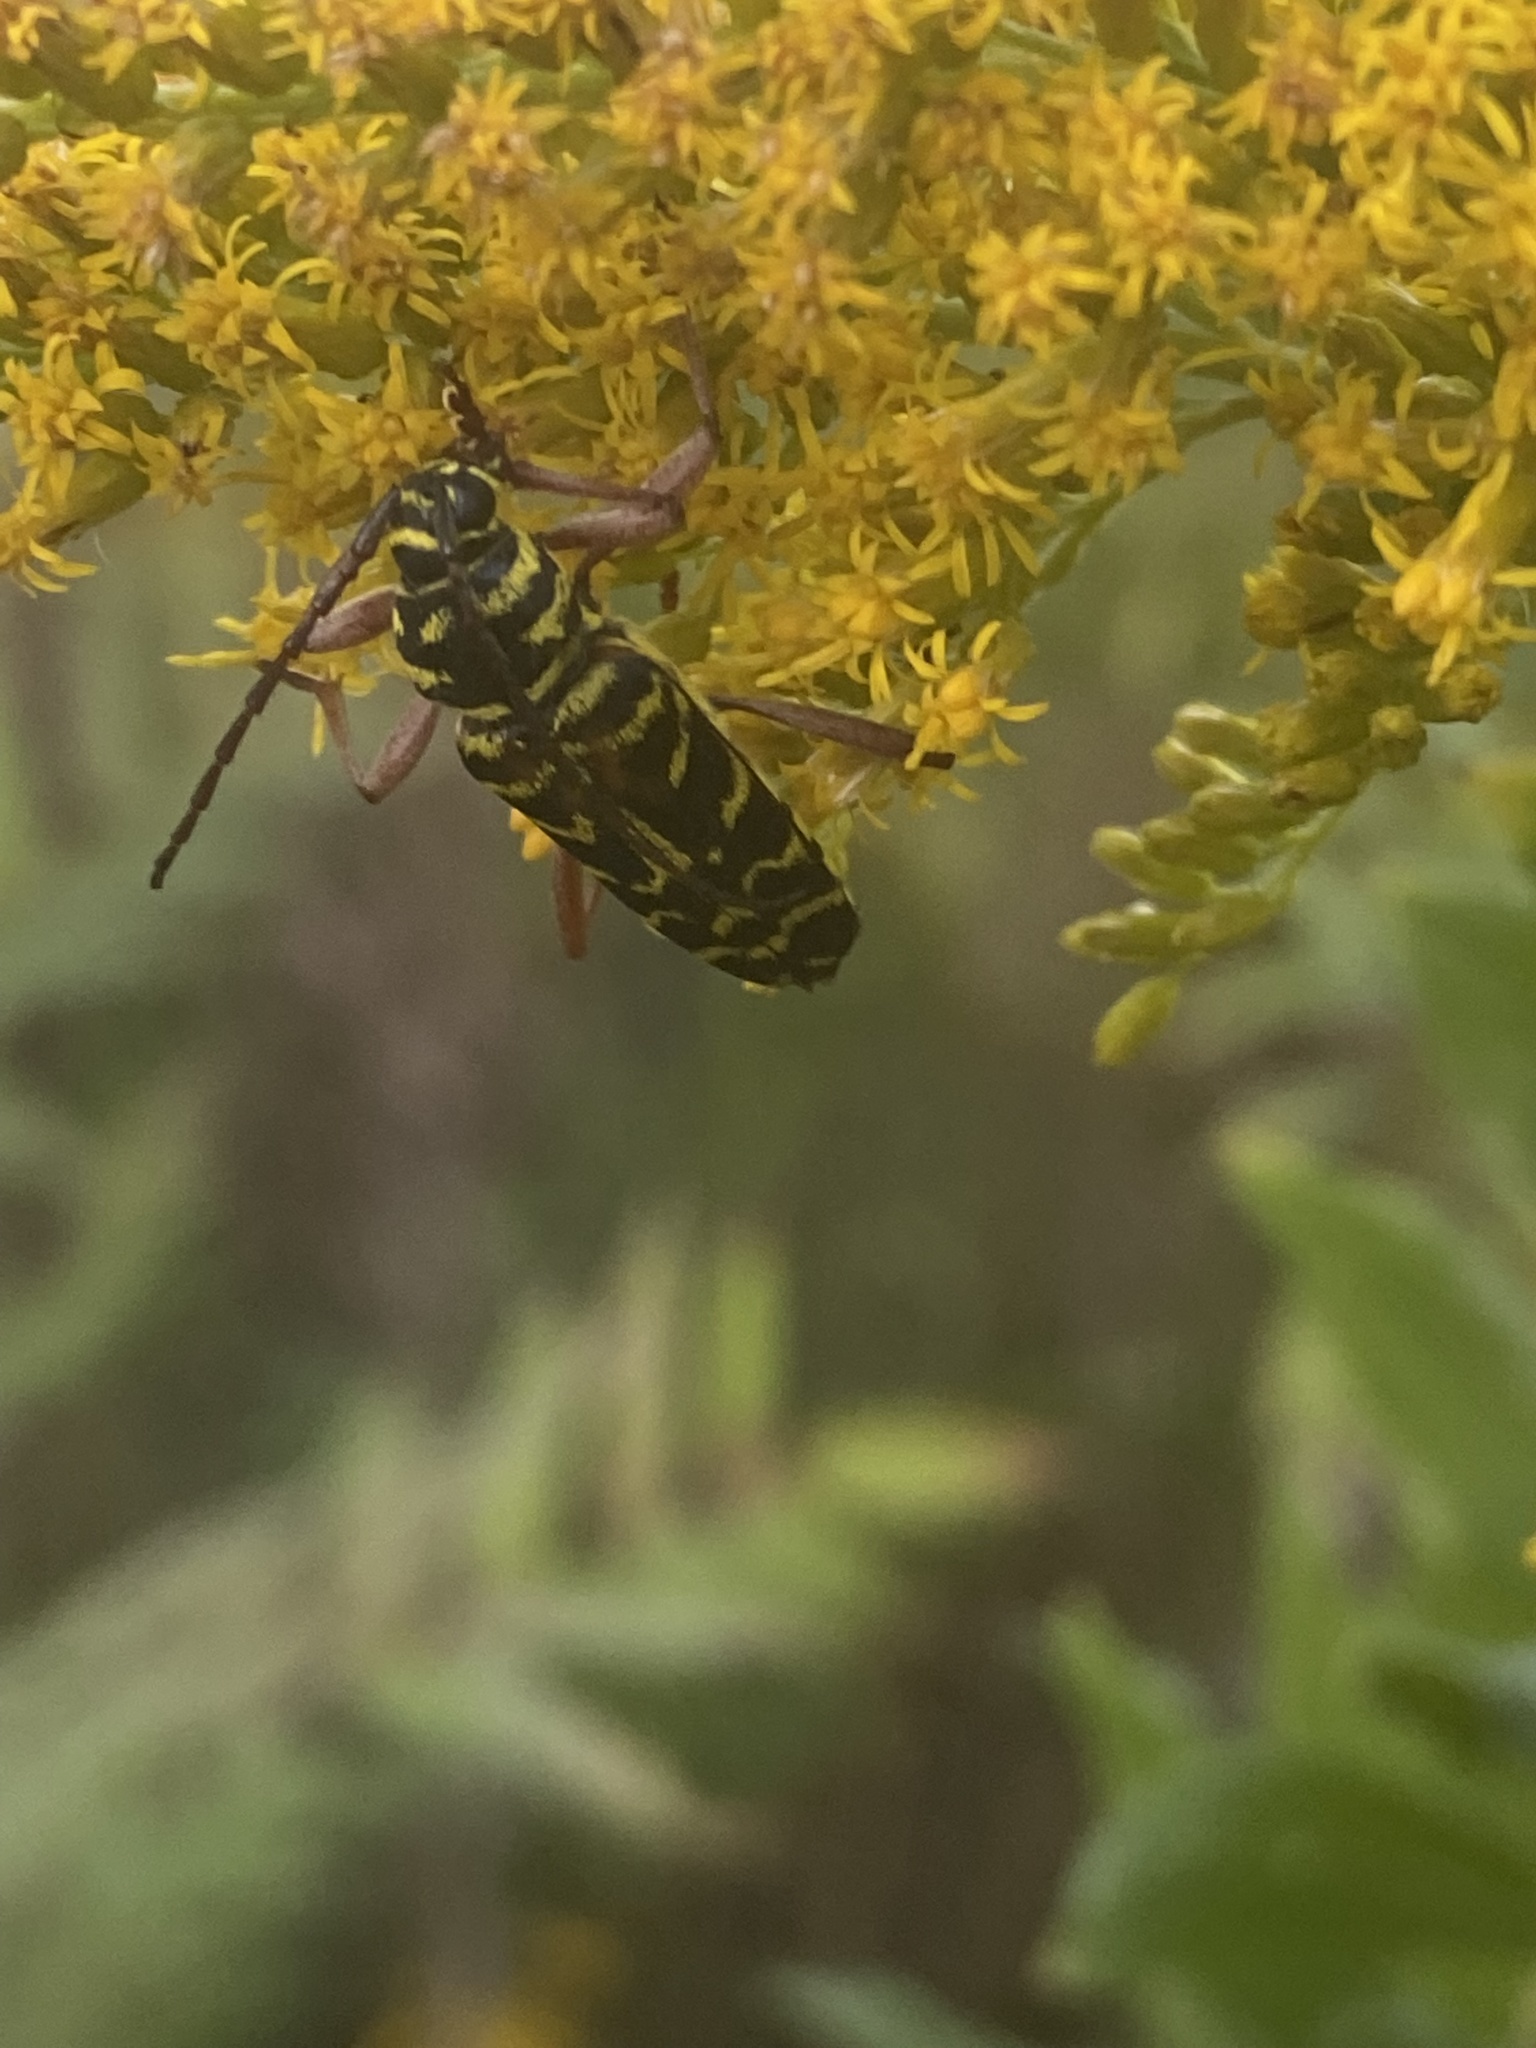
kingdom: Animalia
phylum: Arthropoda
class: Insecta
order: Coleoptera
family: Cerambycidae
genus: Megacyllene
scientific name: Megacyllene robiniae
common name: Locust borer
